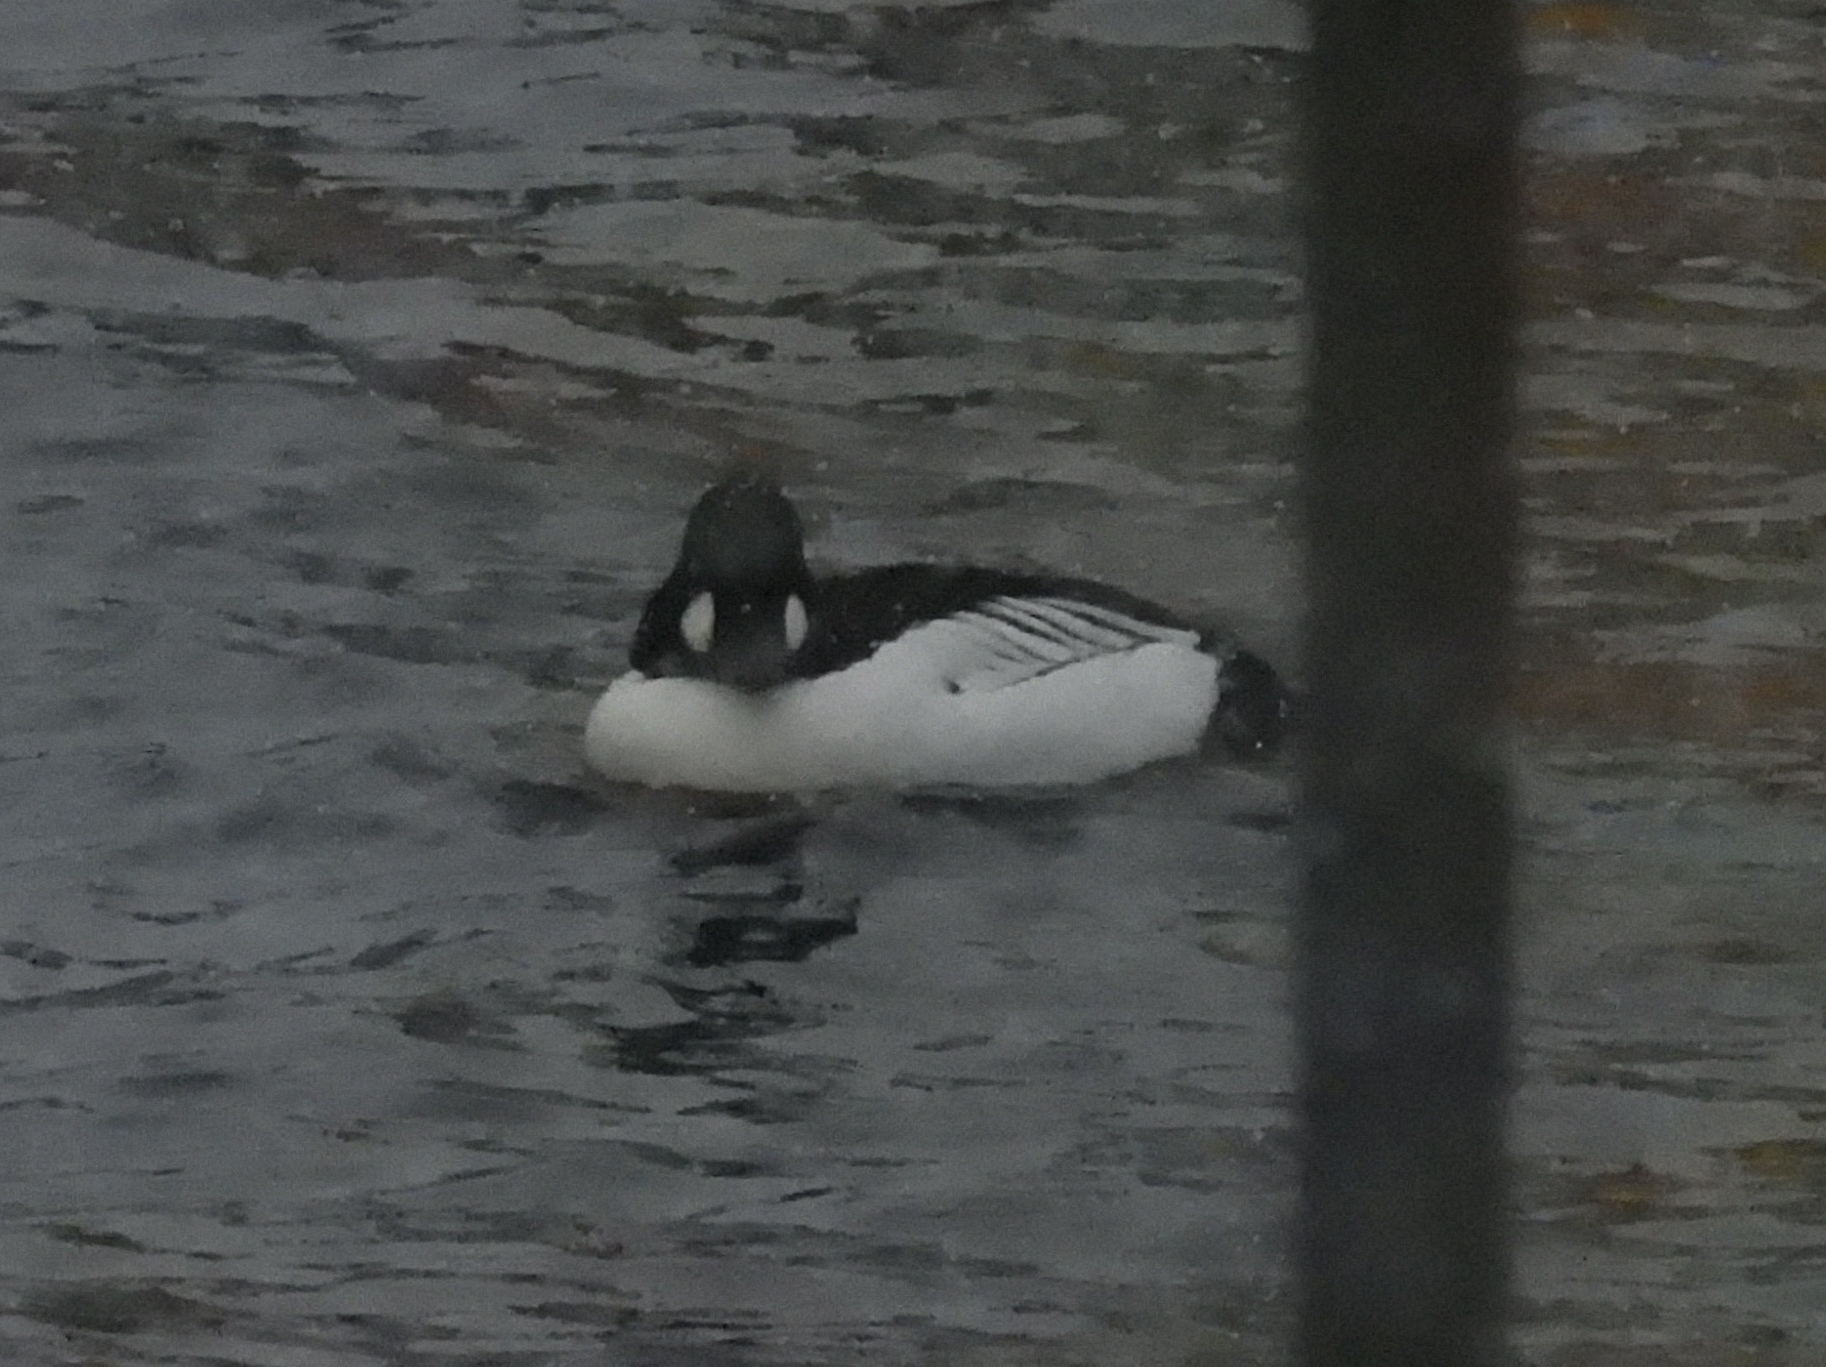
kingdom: Animalia
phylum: Chordata
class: Aves
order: Anseriformes
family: Anatidae
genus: Bucephala
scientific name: Bucephala clangula
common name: Common goldeneye
